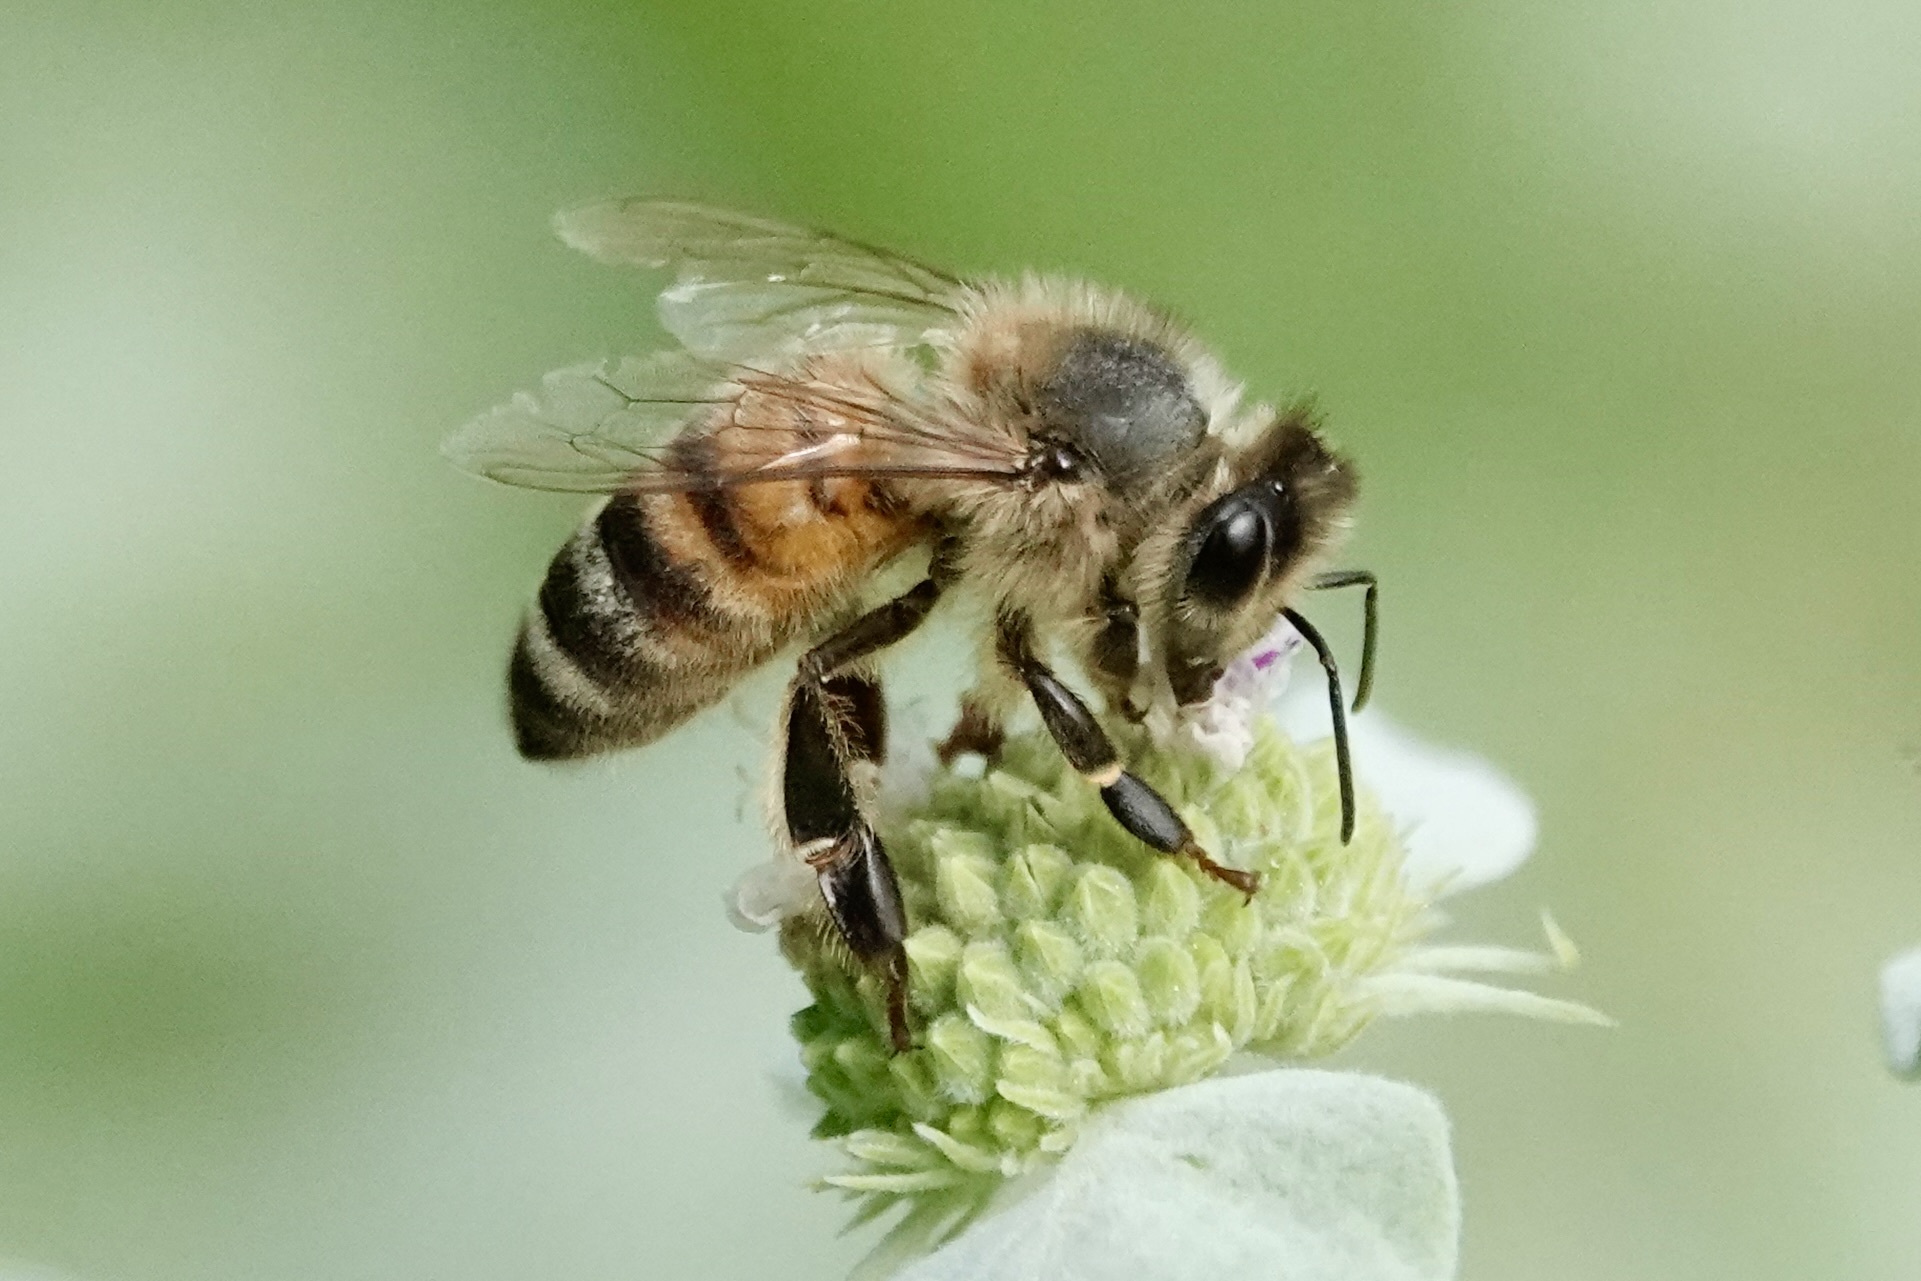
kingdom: Animalia
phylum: Arthropoda
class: Insecta
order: Hymenoptera
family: Apidae
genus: Apis
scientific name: Apis mellifera
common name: Honey bee
